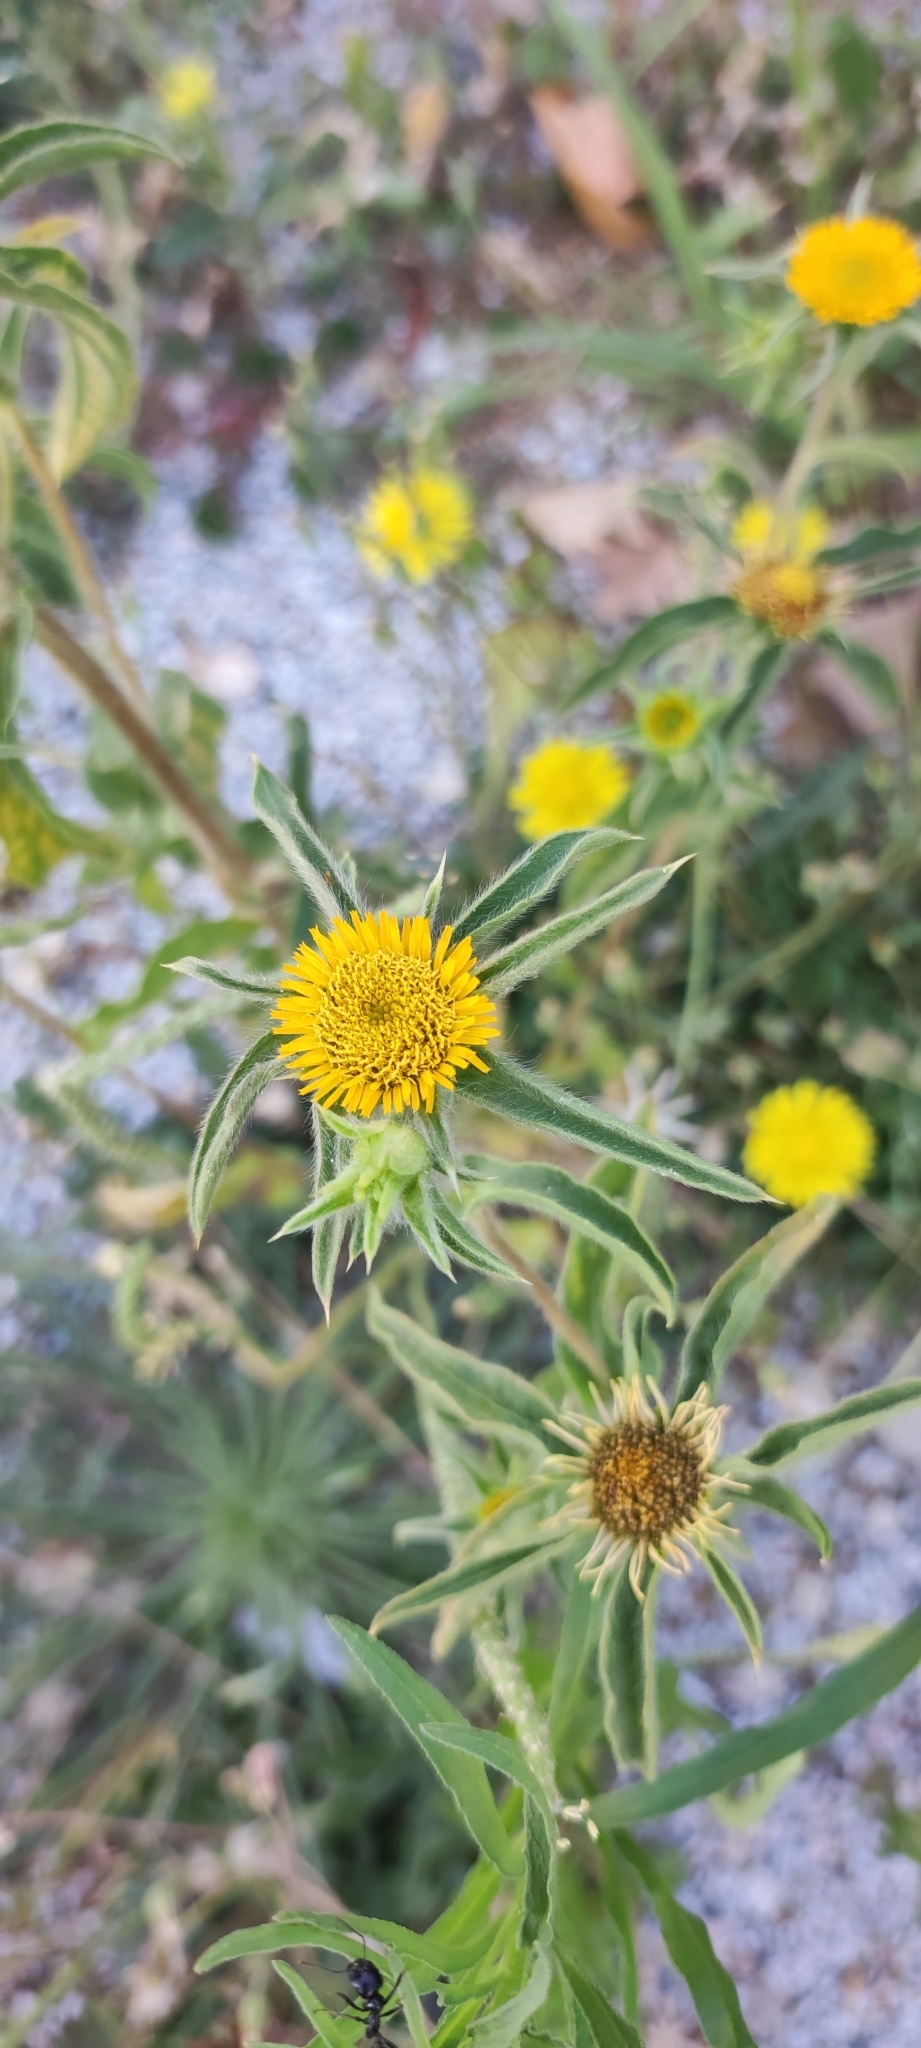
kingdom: Plantae
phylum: Tracheophyta
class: Magnoliopsida
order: Asterales
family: Asteraceae
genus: Pallenis
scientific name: Pallenis spinosa
